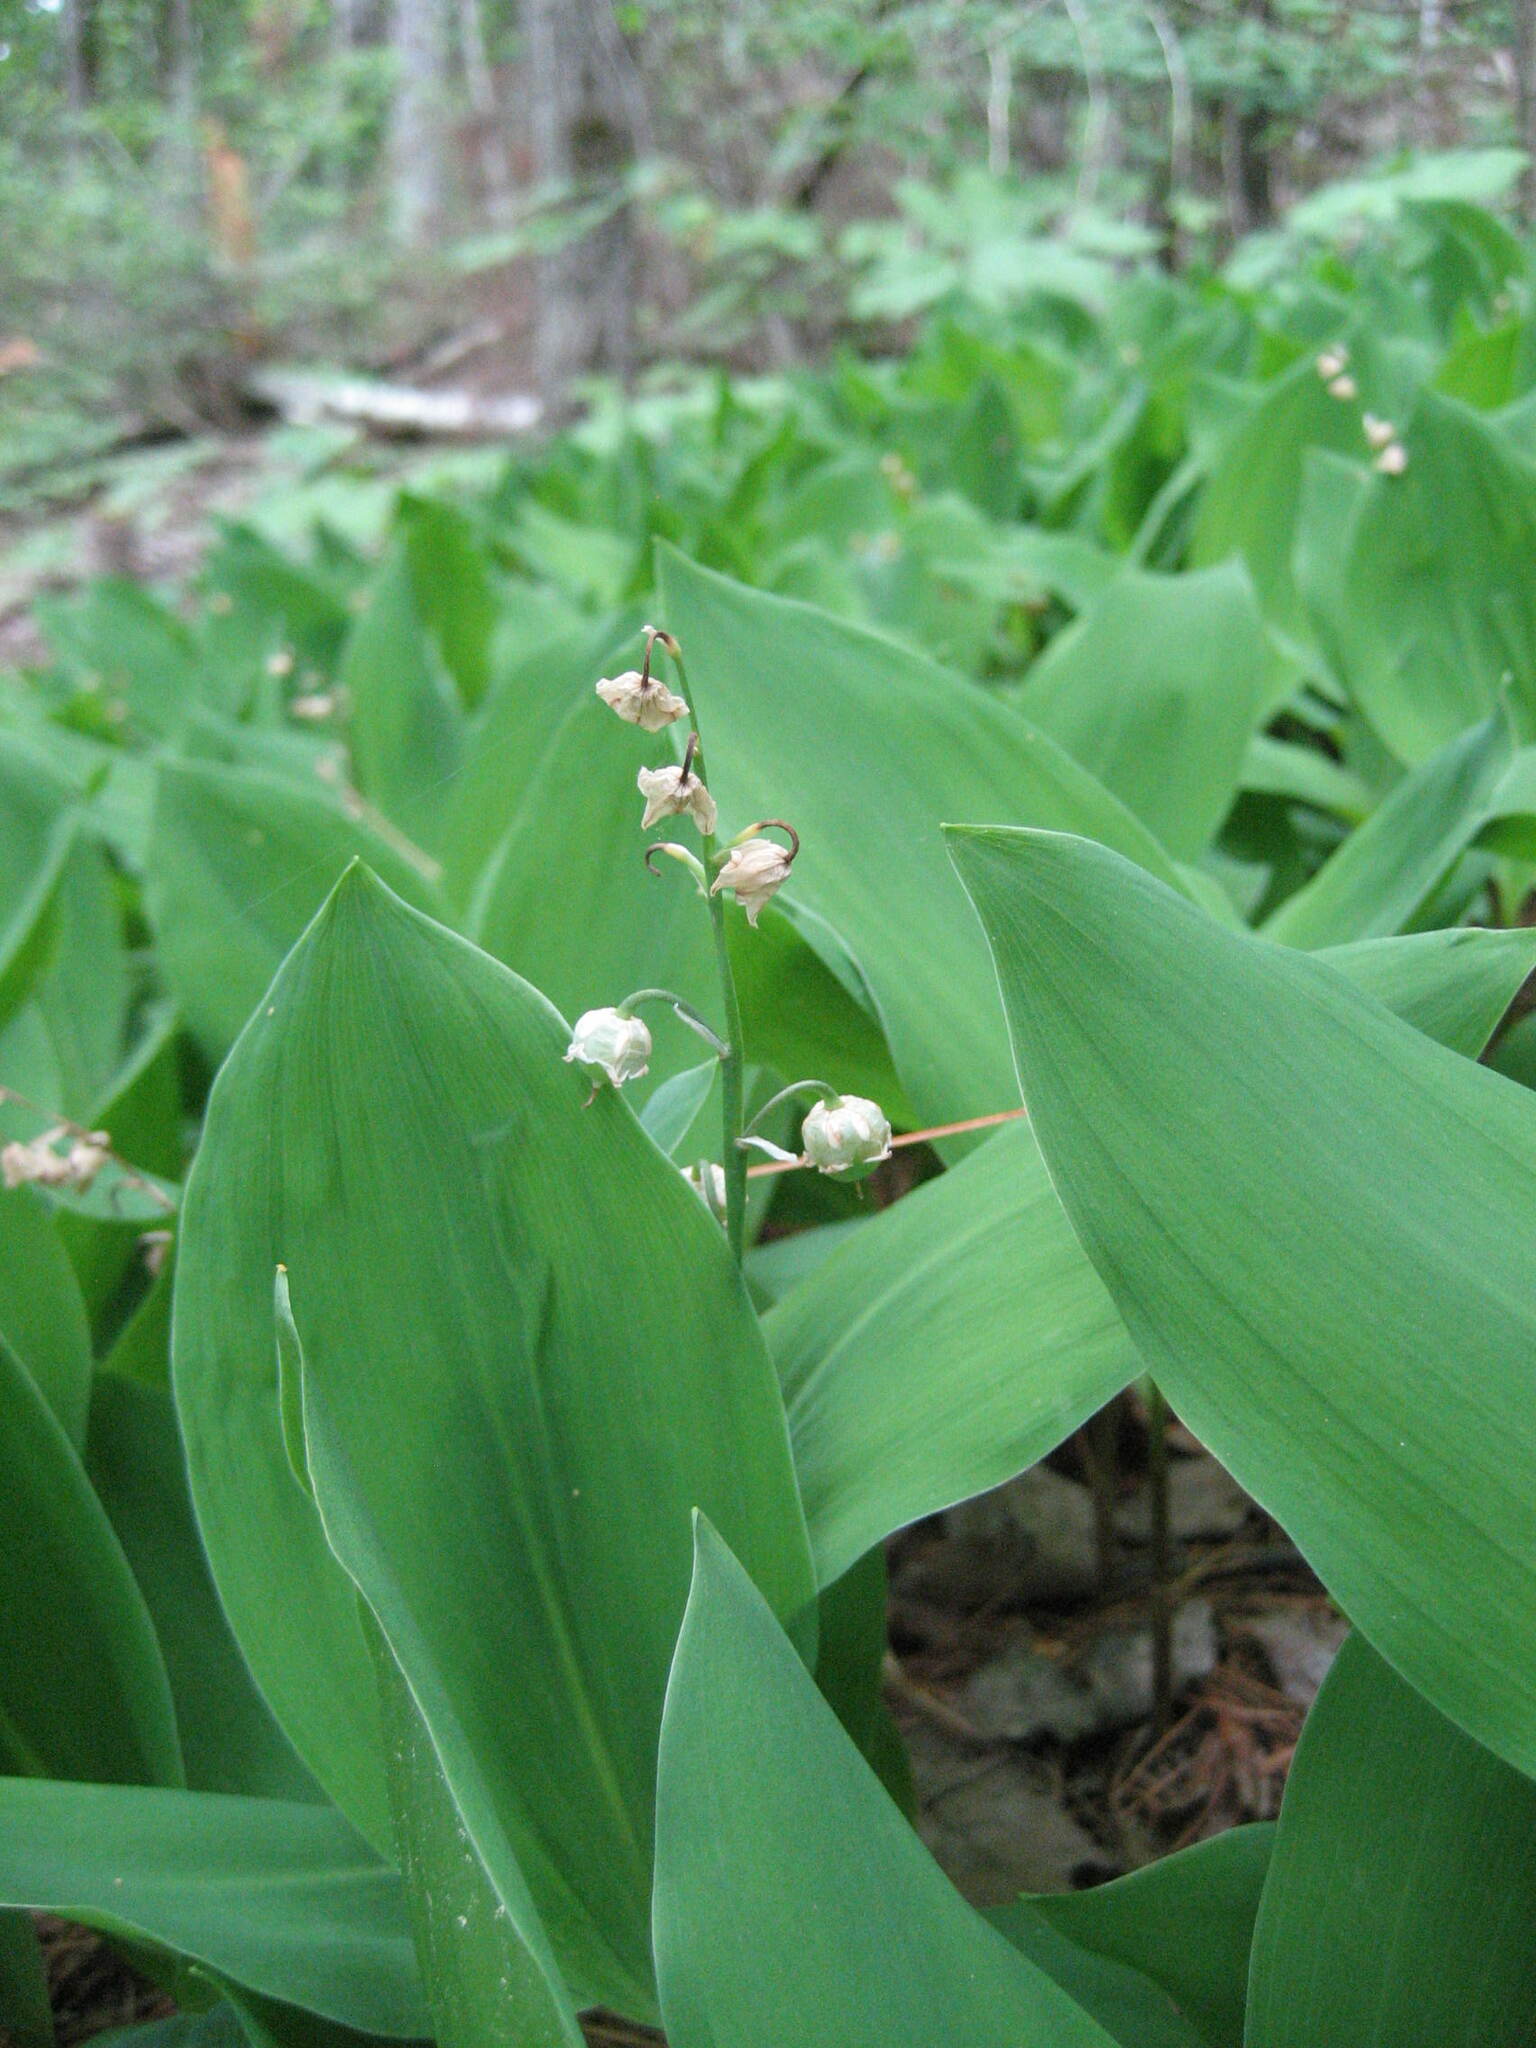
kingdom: Plantae
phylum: Tracheophyta
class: Liliopsida
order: Asparagales
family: Asparagaceae
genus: Convallaria
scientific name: Convallaria majalis
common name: Lily-of-the-valley
